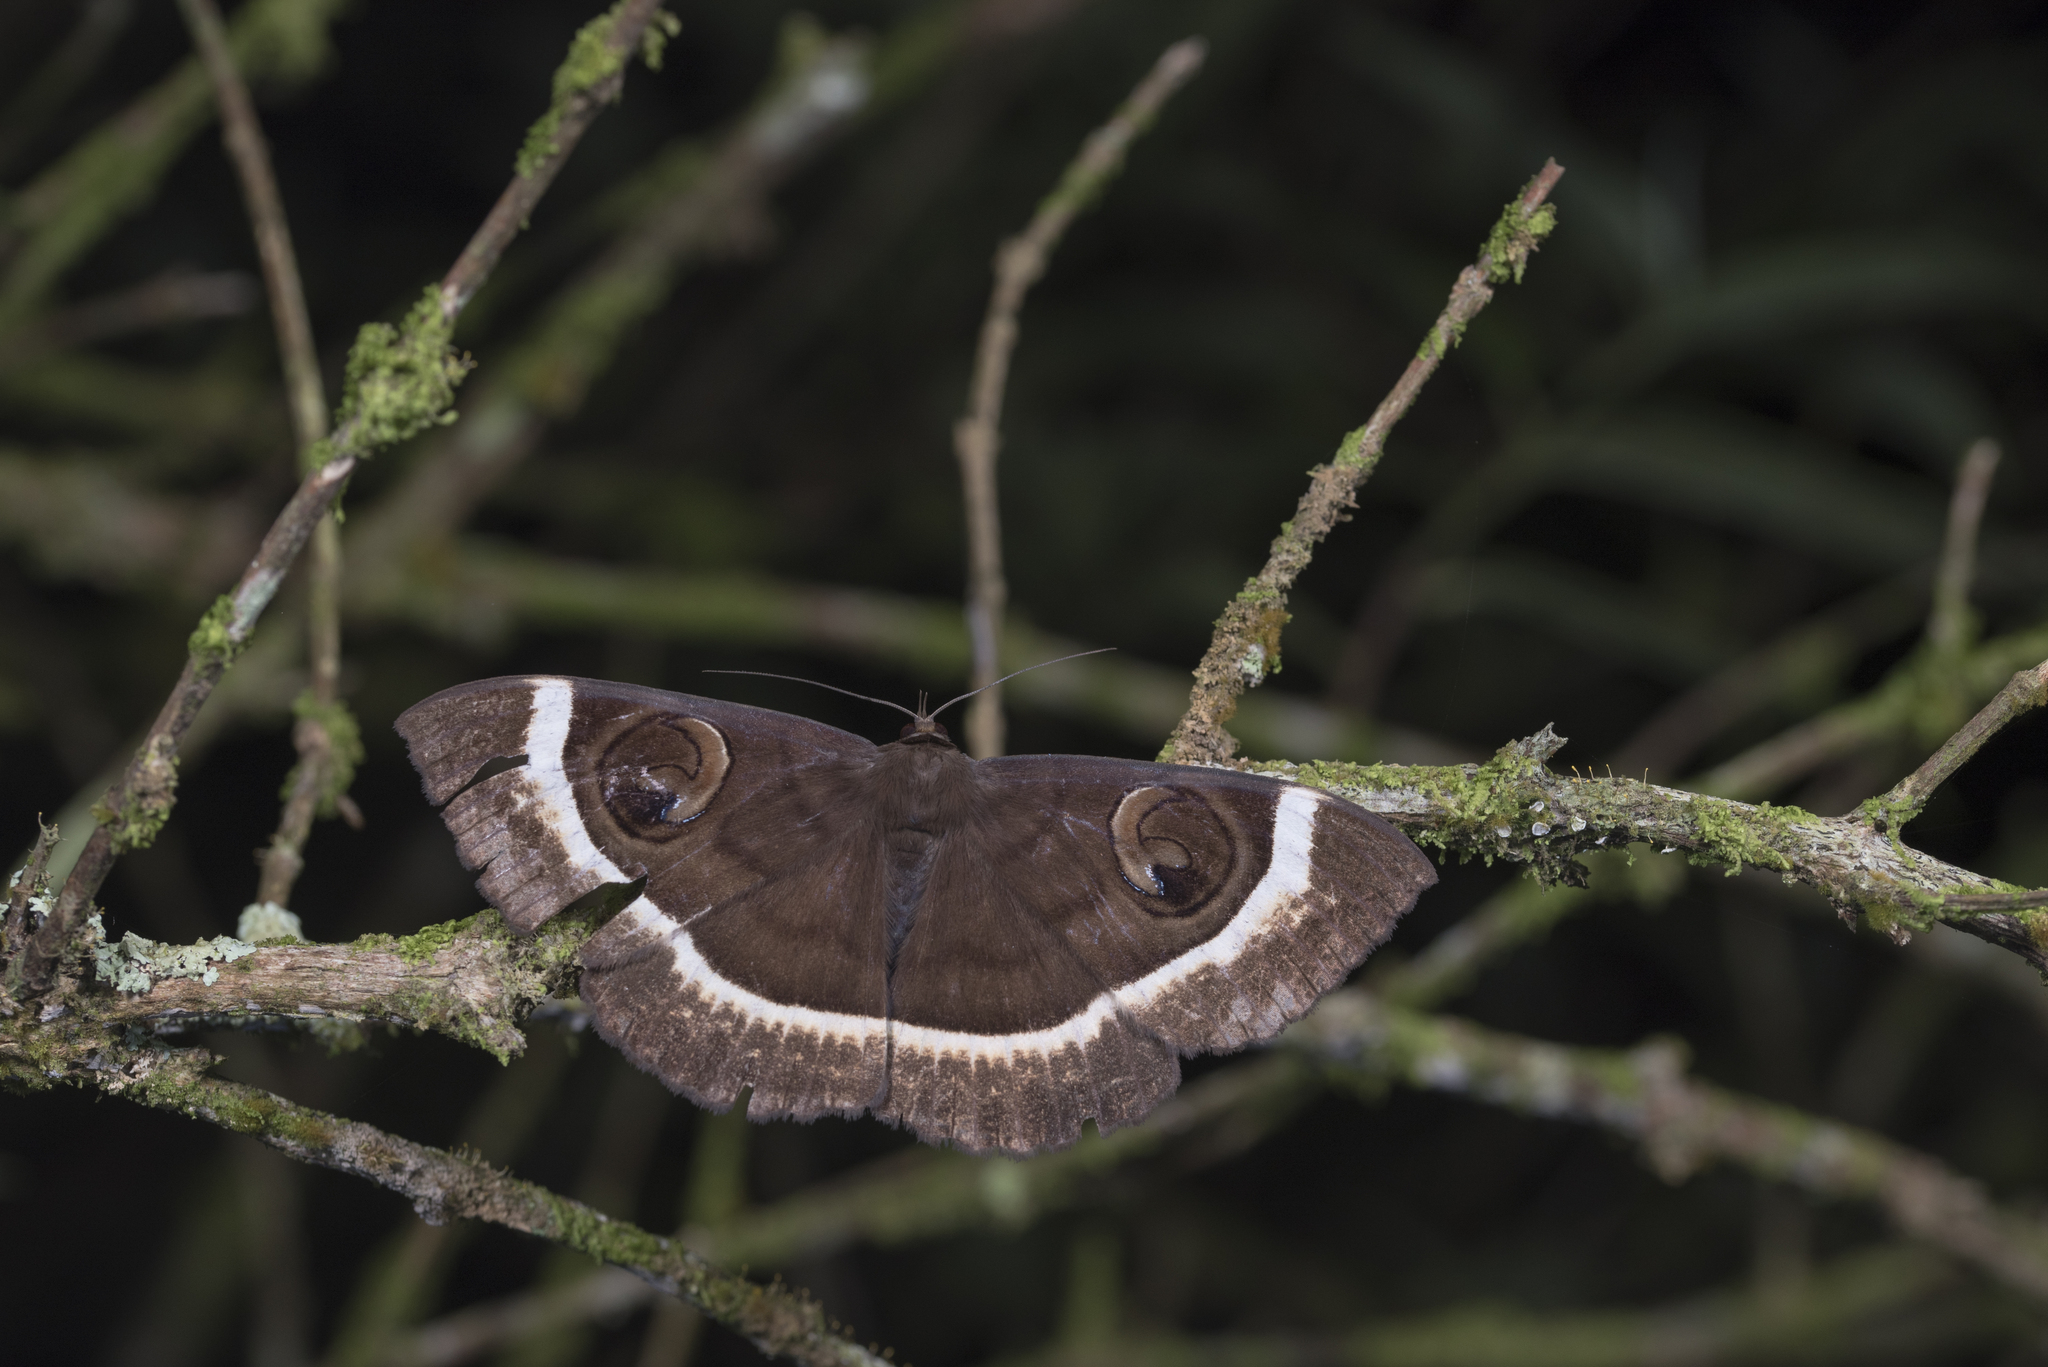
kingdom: Animalia
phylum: Arthropoda
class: Insecta
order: Lepidoptera
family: Erebidae
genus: Erebus
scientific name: Erebus gemmans
